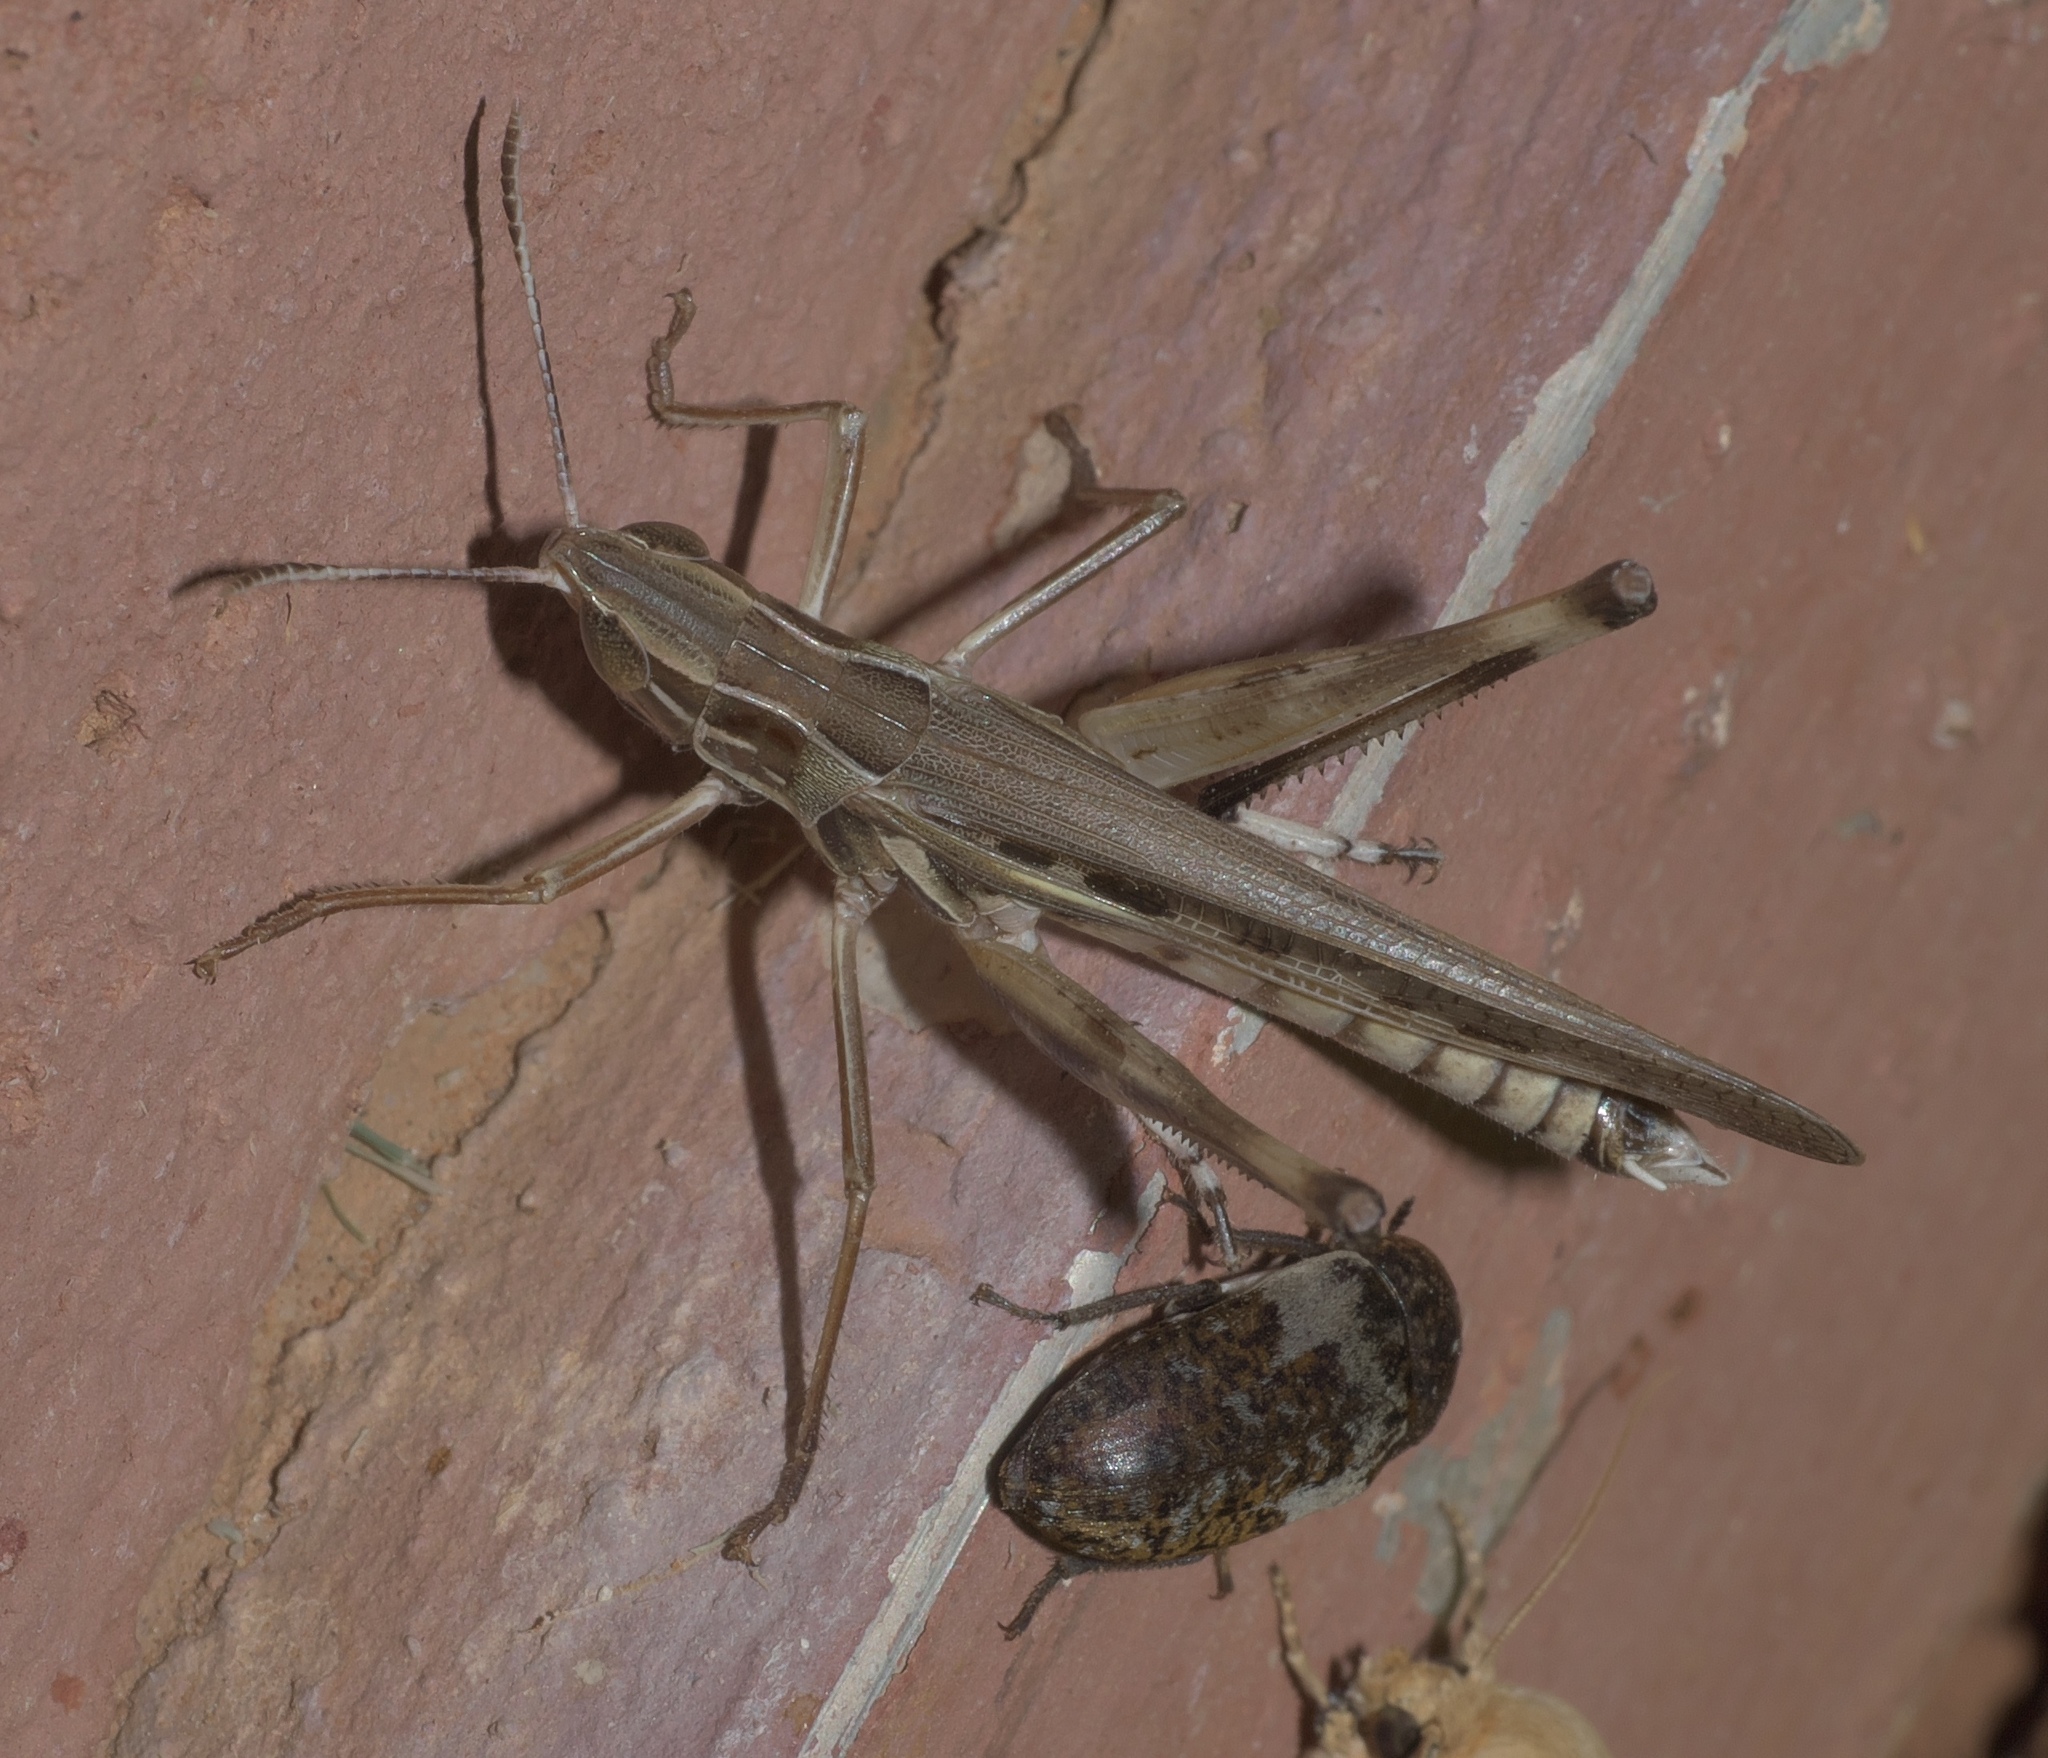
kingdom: Animalia
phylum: Arthropoda
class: Insecta
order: Orthoptera
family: Acrididae
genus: Syrbula
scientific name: Syrbula admirabilis
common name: Handsome grasshopper
